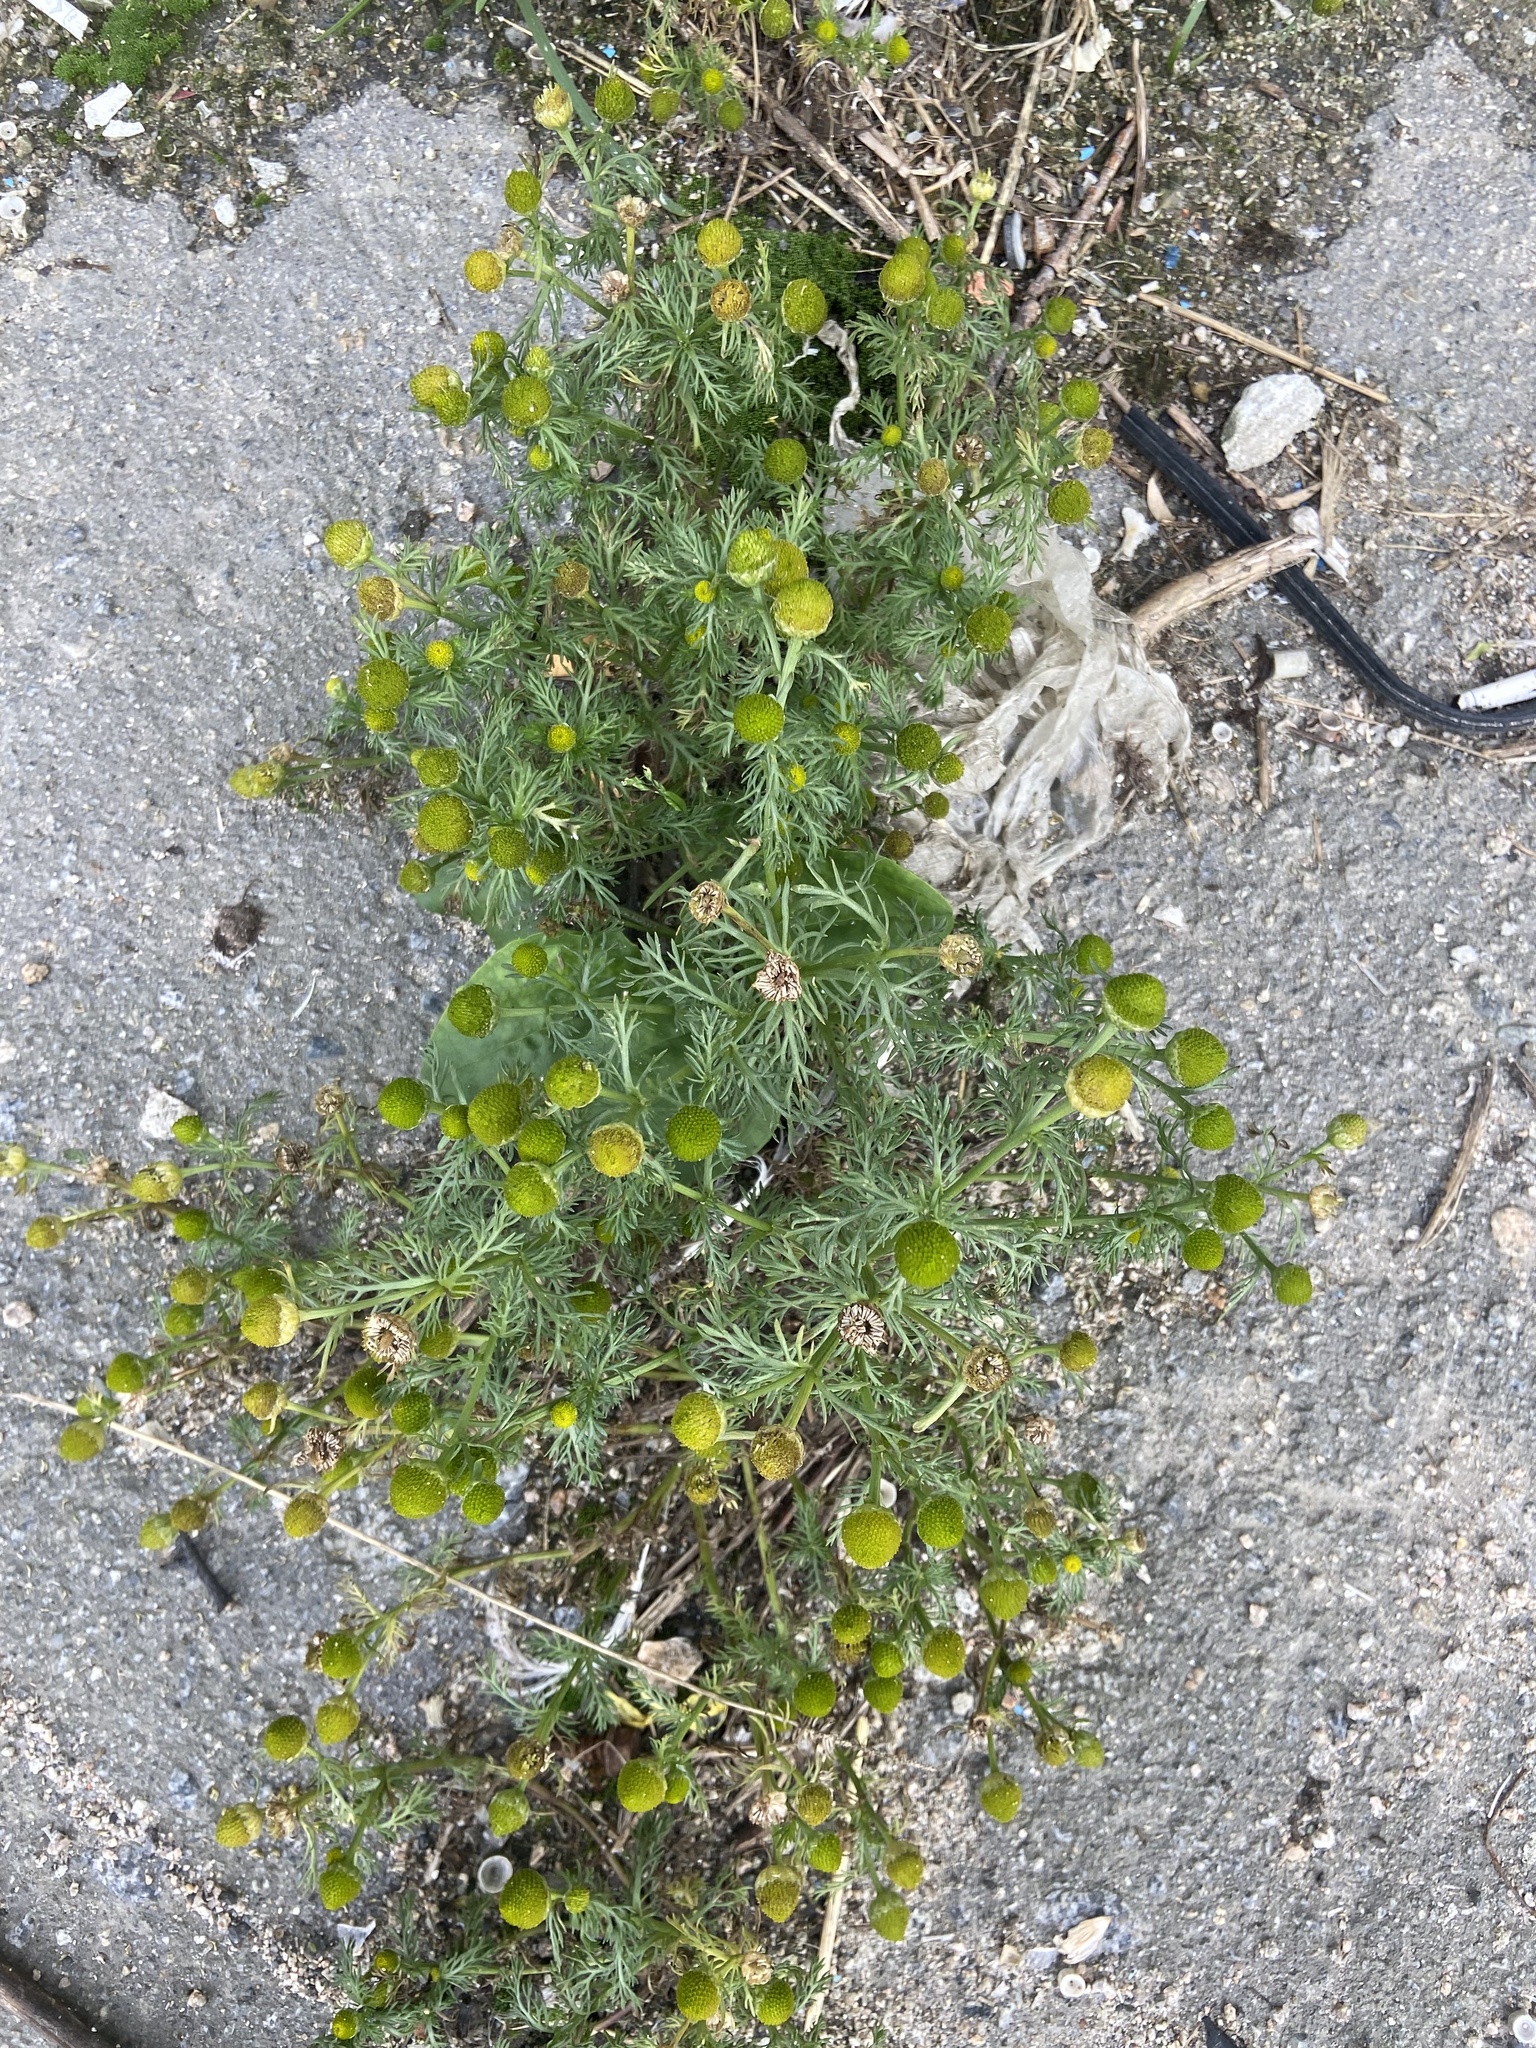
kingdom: Plantae
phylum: Tracheophyta
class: Magnoliopsida
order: Asterales
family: Asteraceae
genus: Matricaria
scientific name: Matricaria discoidea
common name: Disc mayweed
